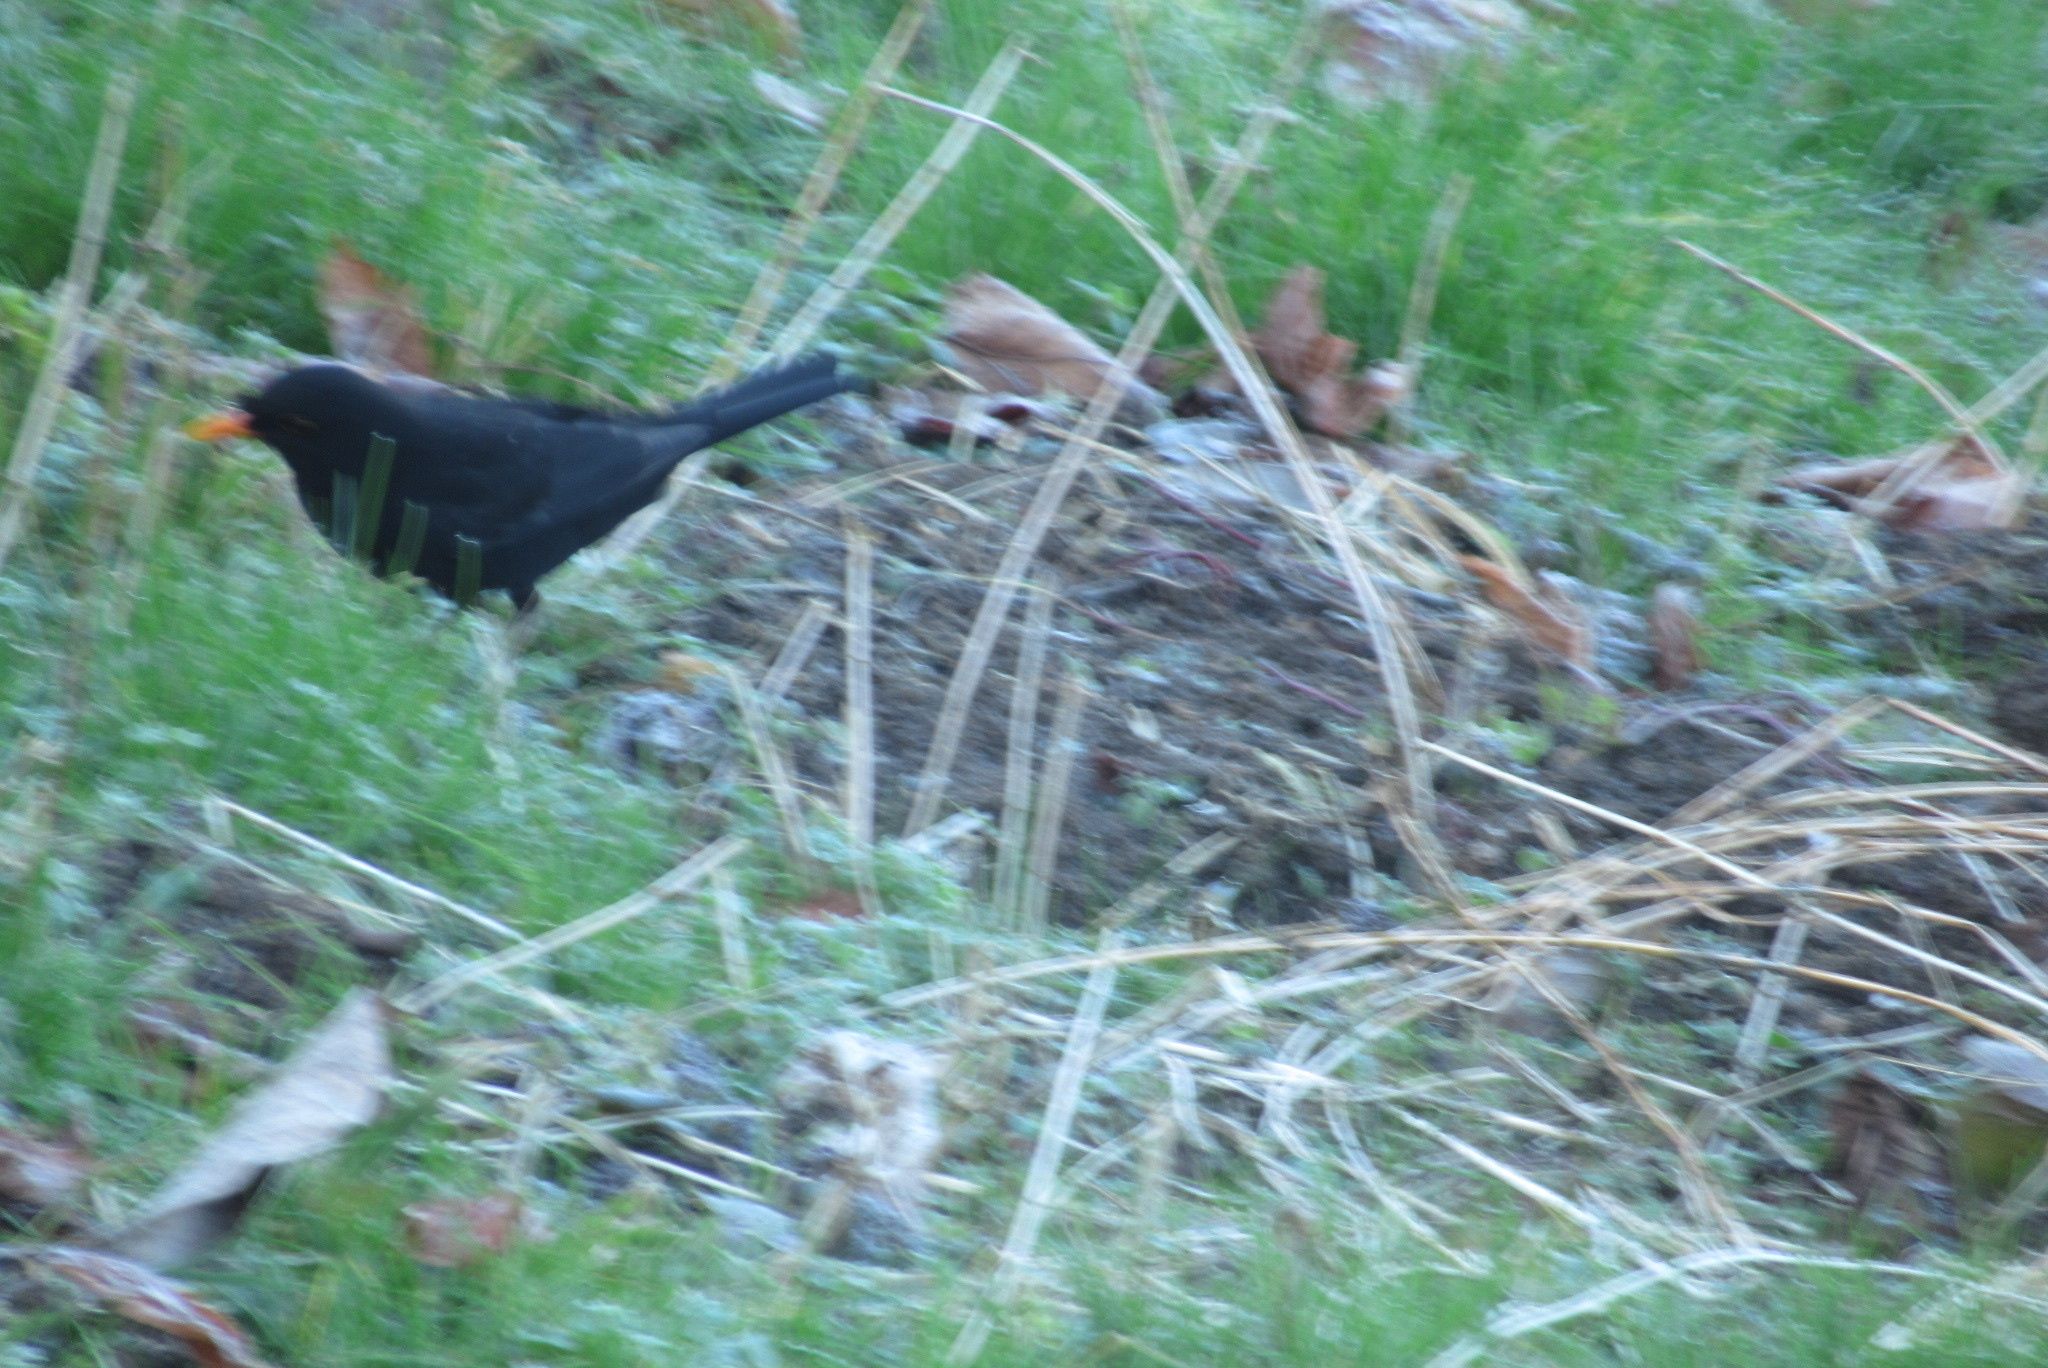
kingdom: Animalia
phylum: Chordata
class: Aves
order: Passeriformes
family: Turdidae
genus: Turdus
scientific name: Turdus merula
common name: Common blackbird
